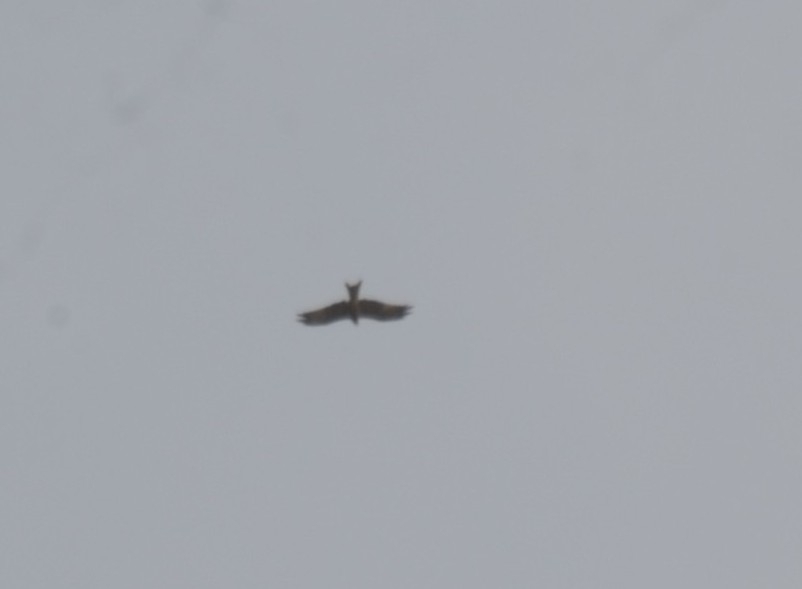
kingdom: Animalia
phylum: Chordata
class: Aves
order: Accipitriformes
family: Accipitridae
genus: Milvus
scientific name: Milvus migrans
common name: Black kite
